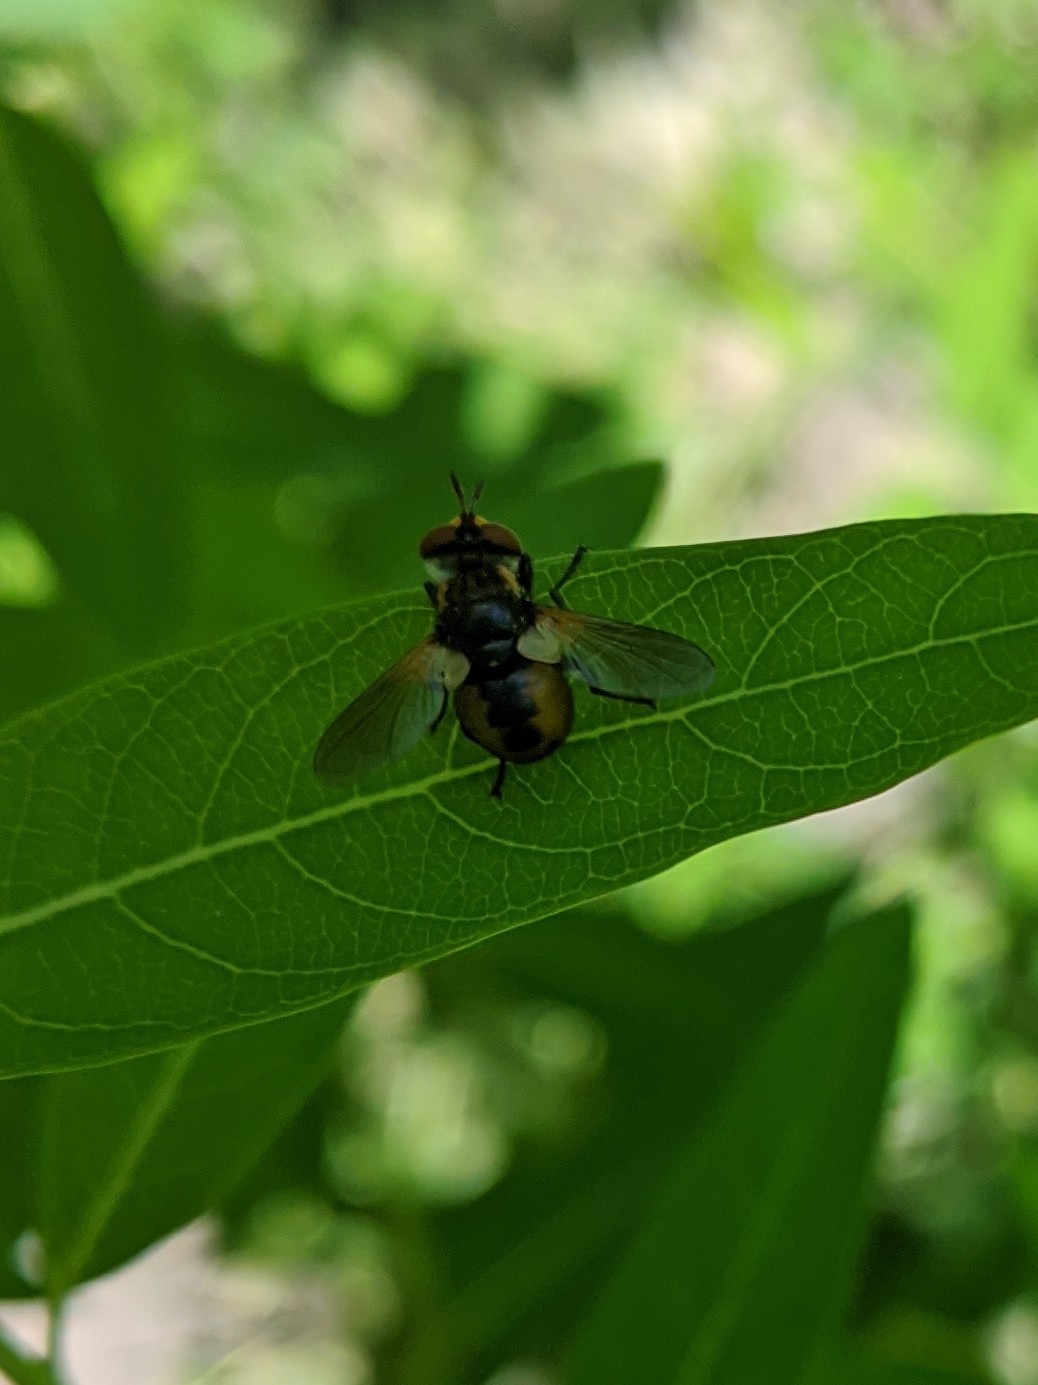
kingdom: Animalia
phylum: Arthropoda
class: Insecta
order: Diptera
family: Tachinidae
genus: Gymnosoma
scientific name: Gymnosoma
